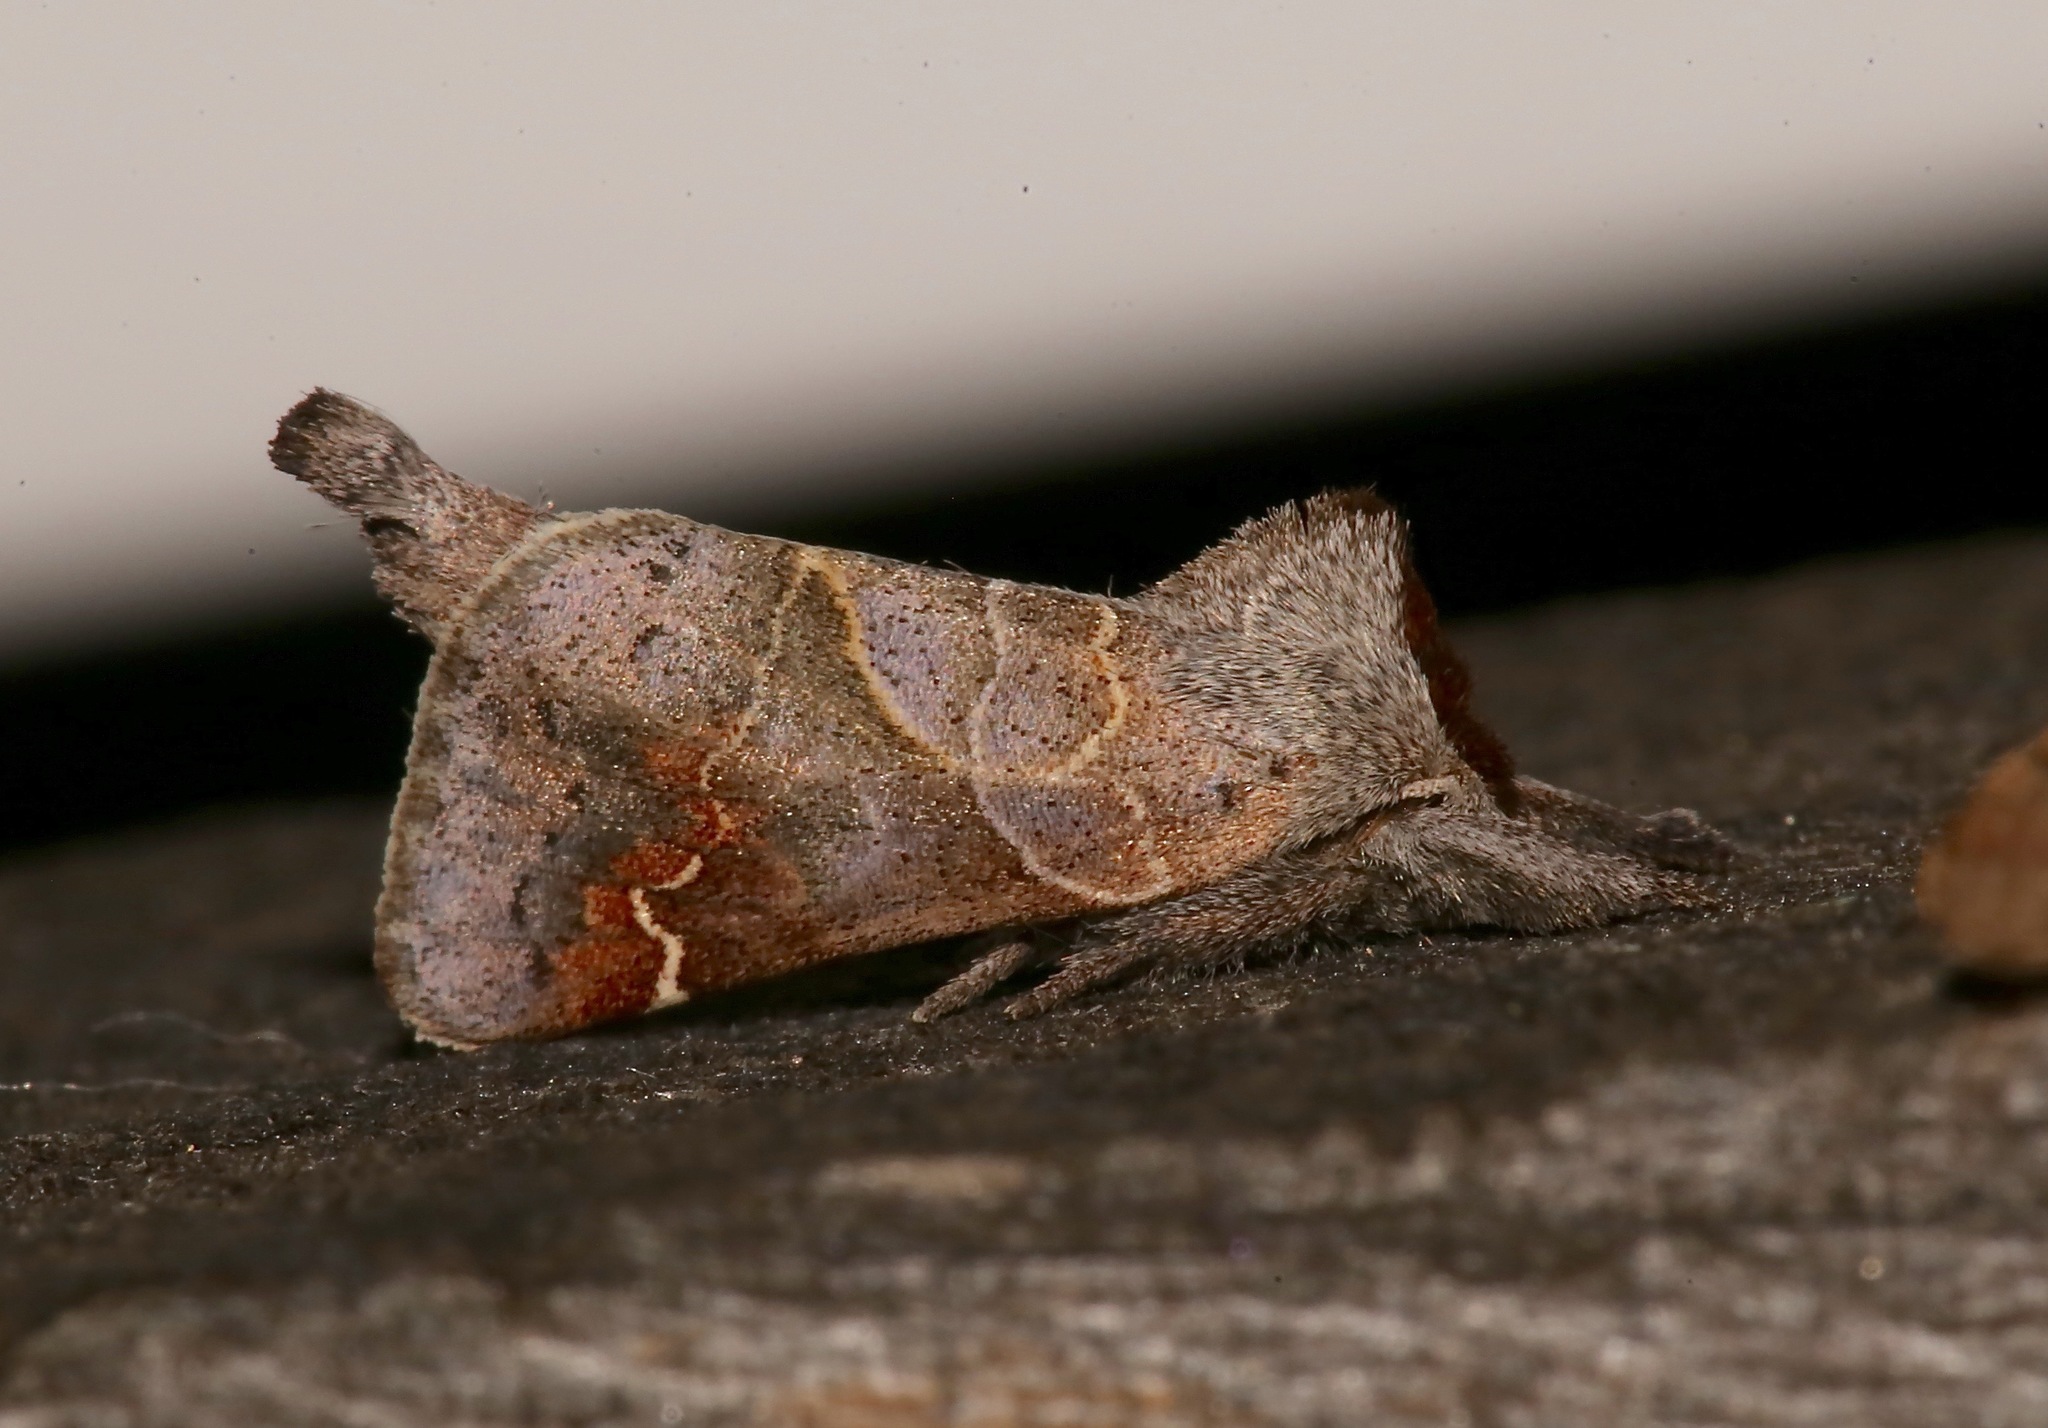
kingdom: Animalia
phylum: Arthropoda
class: Insecta
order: Lepidoptera
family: Notodontidae
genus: Clostera
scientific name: Clostera apicalis
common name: Apical prominent
